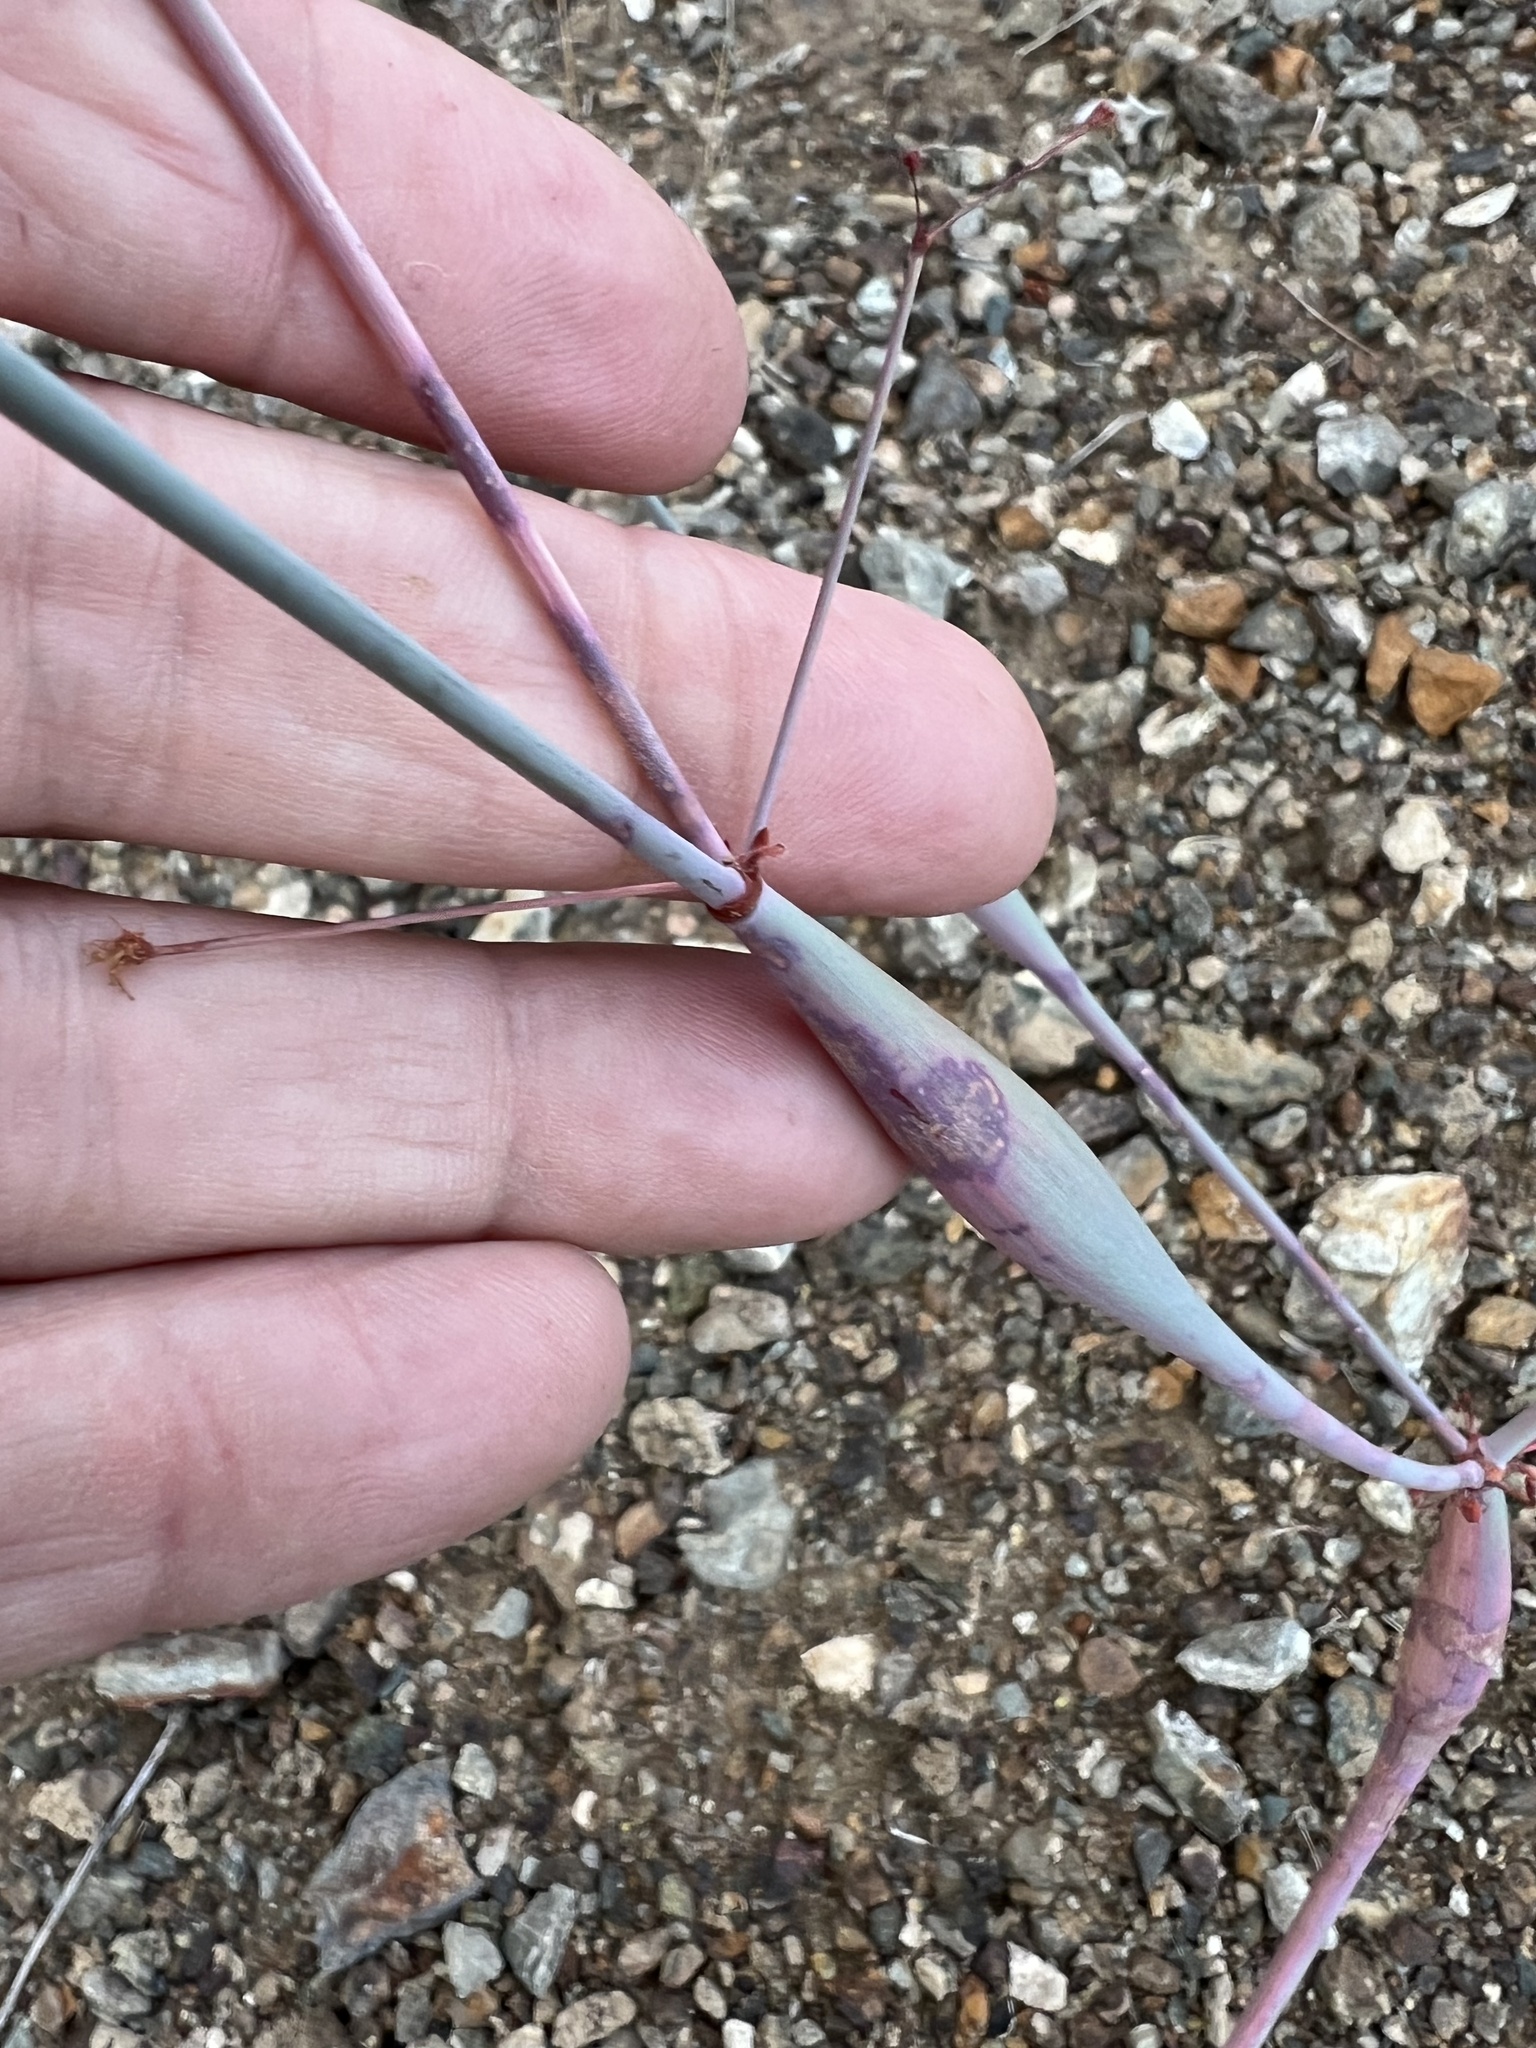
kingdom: Plantae
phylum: Tracheophyta
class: Magnoliopsida
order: Caryophyllales
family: Polygonaceae
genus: Eriogonum
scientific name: Eriogonum inflatum
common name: Desert trumpet
